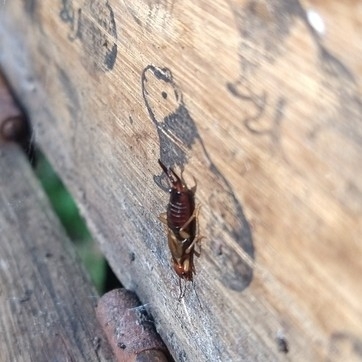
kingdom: Animalia
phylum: Arthropoda
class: Insecta
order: Dermaptera
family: Forficulidae
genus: Forficula
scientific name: Forficula
